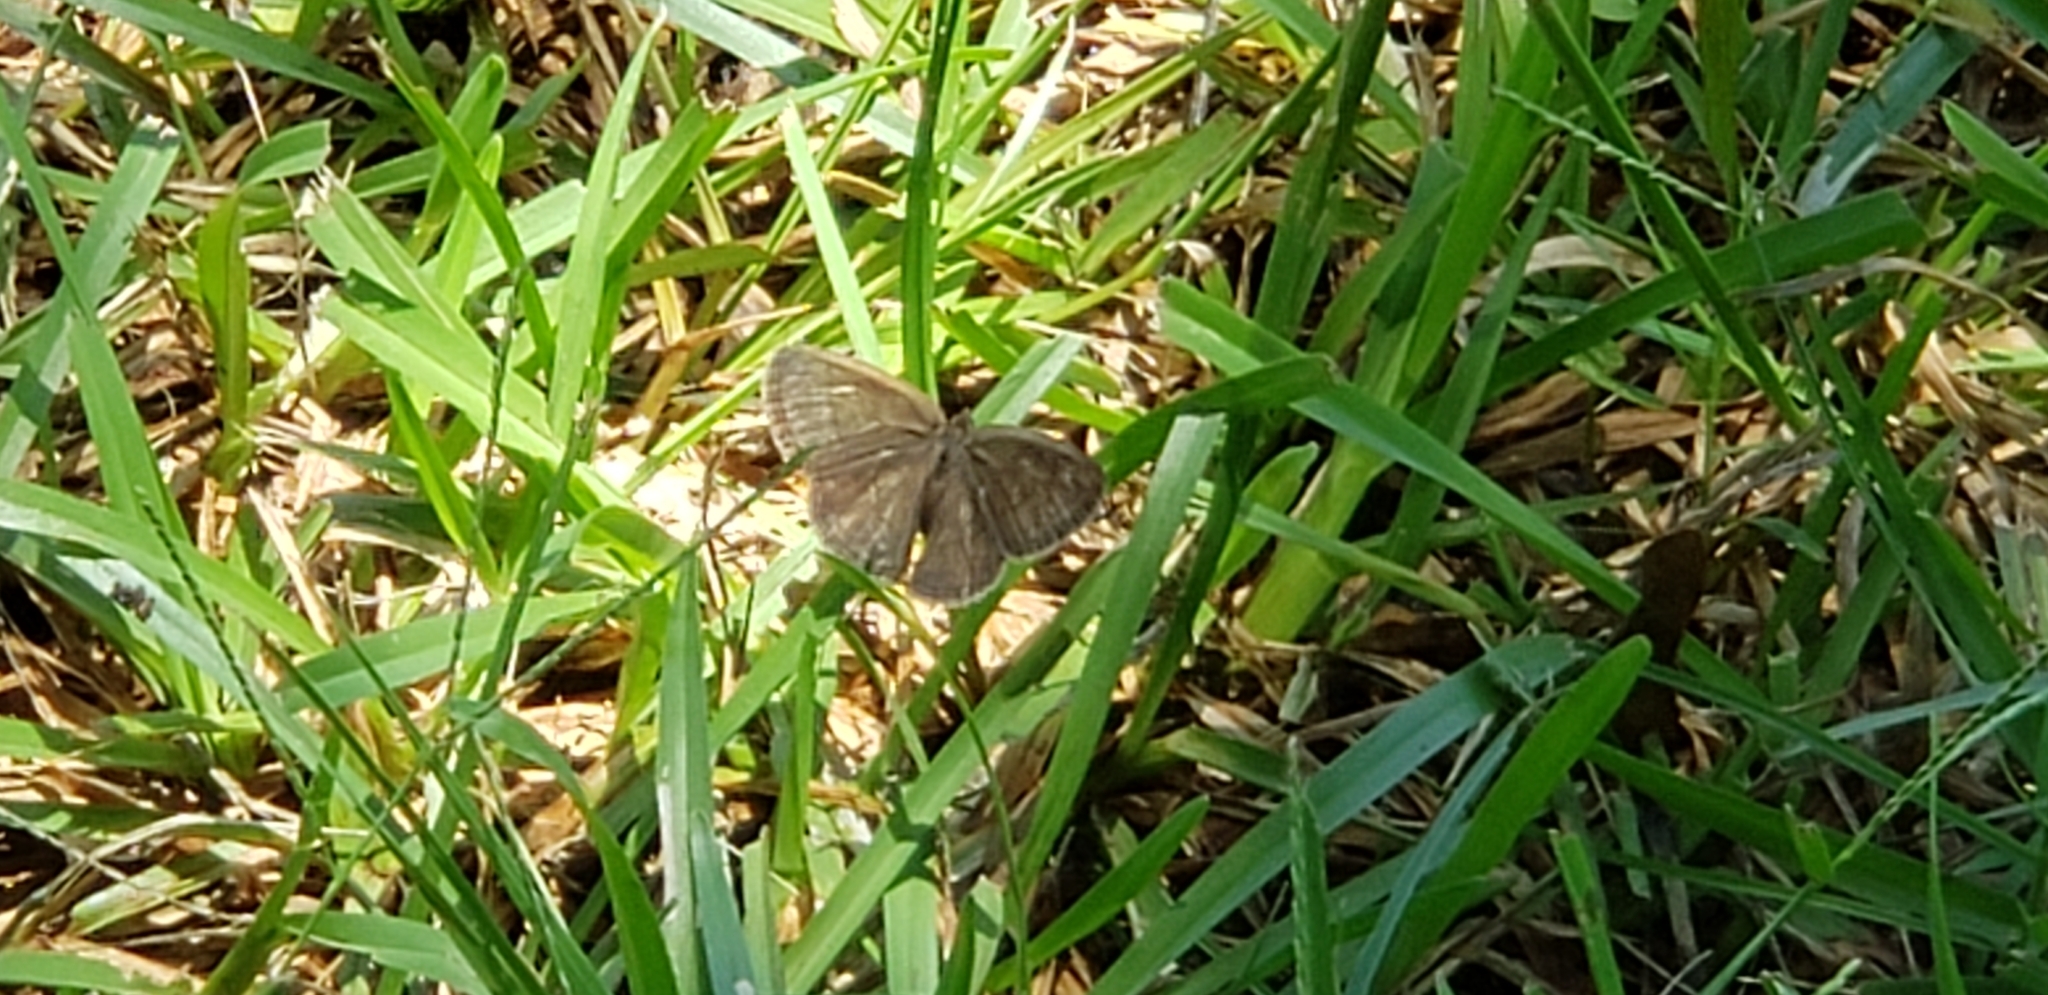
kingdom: Animalia
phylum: Arthropoda
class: Insecta
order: Lepidoptera
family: Nymphalidae
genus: Hermeuptychia
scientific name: Hermeuptychia hermes
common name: Hermes satyr
